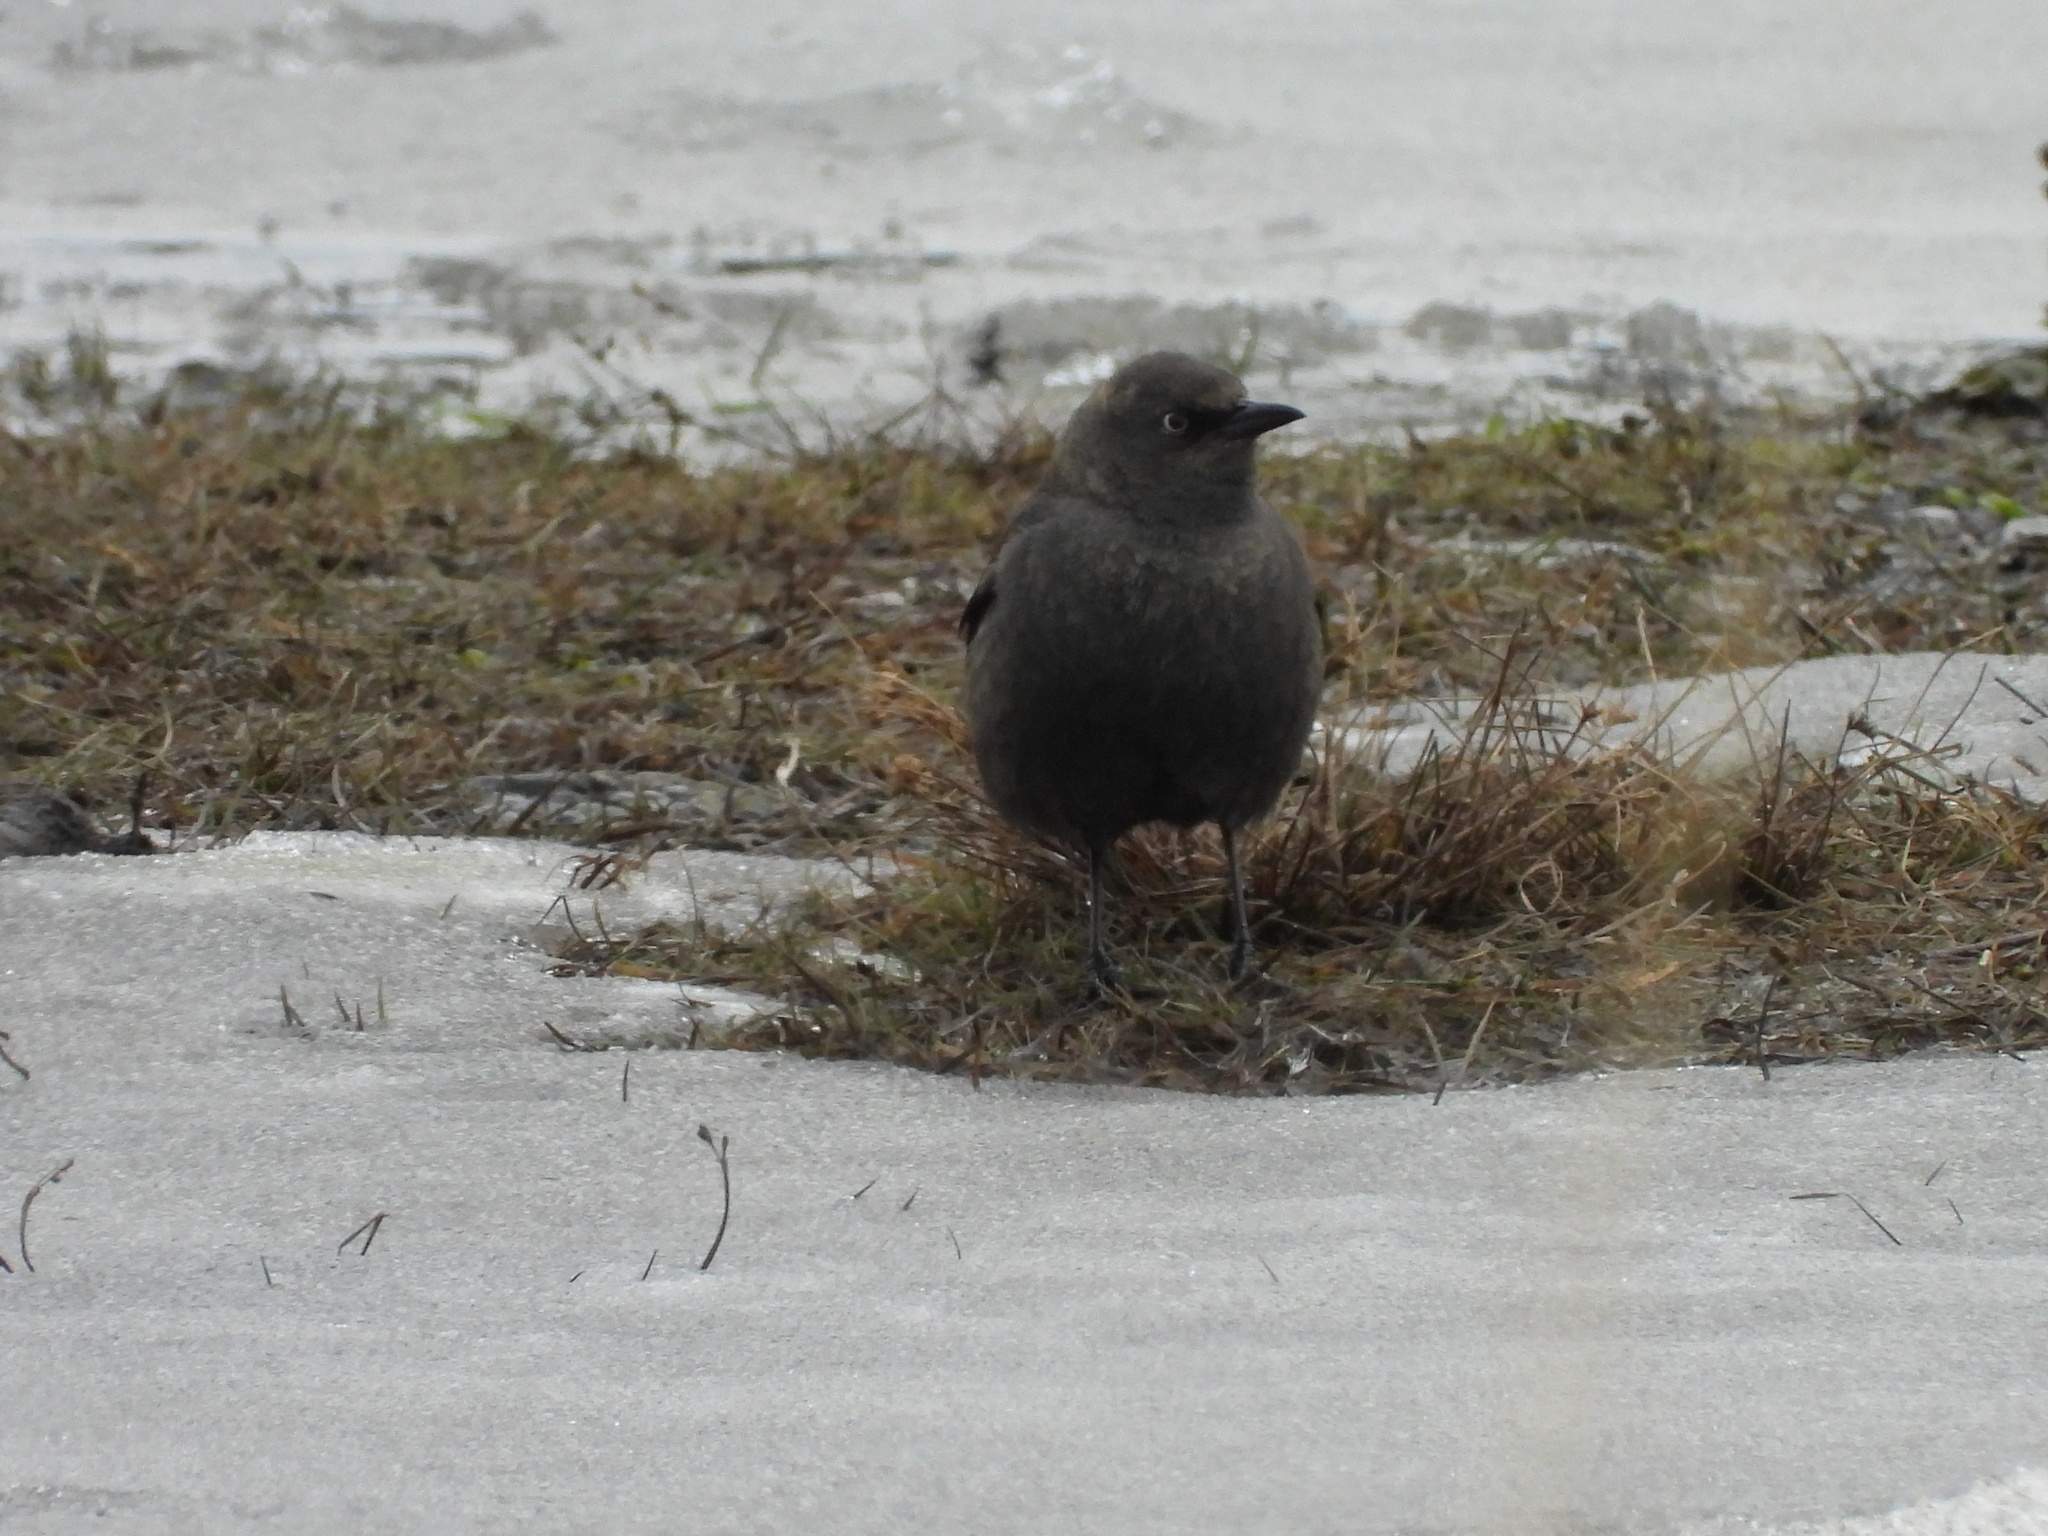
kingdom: Animalia
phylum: Chordata
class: Aves
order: Passeriformes
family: Icteridae
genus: Euphagus
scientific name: Euphagus carolinus
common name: Rusty blackbird
